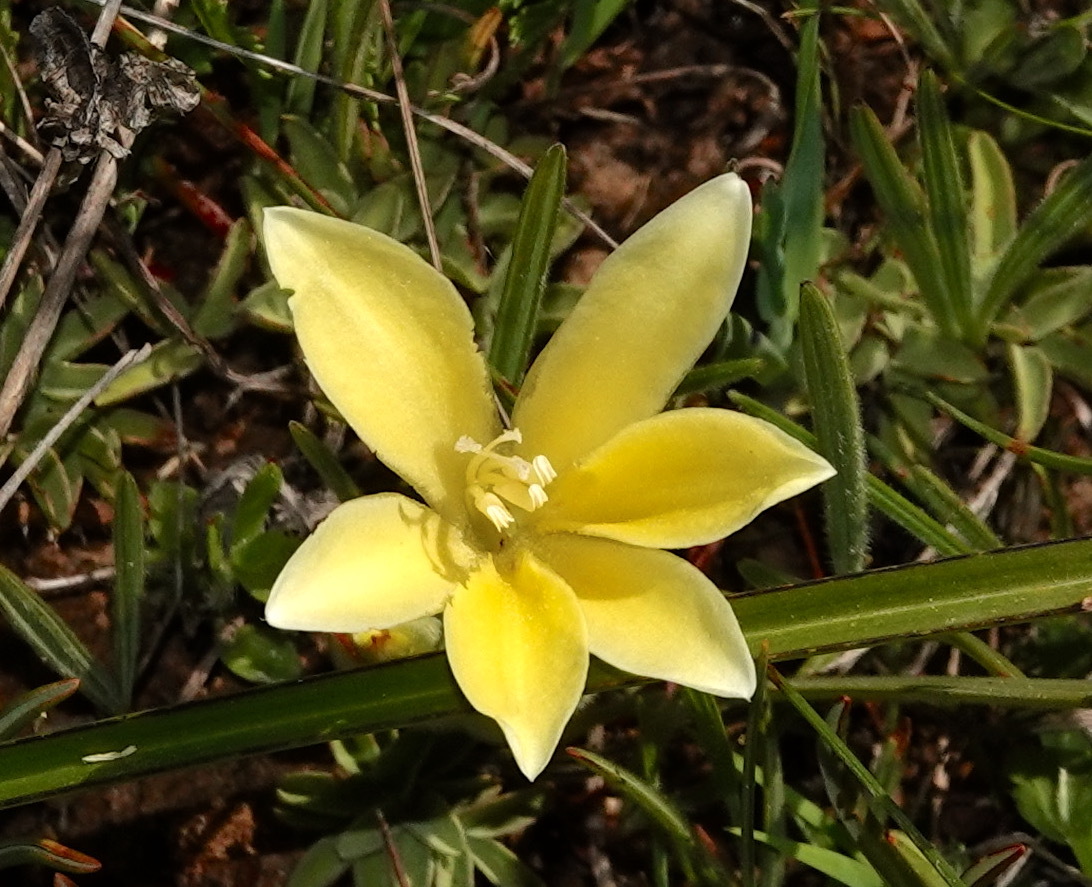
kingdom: Plantae
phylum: Tracheophyta
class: Liliopsida
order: Asparagales
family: Iridaceae
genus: Babiana
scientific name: Babiana vanzijliae
